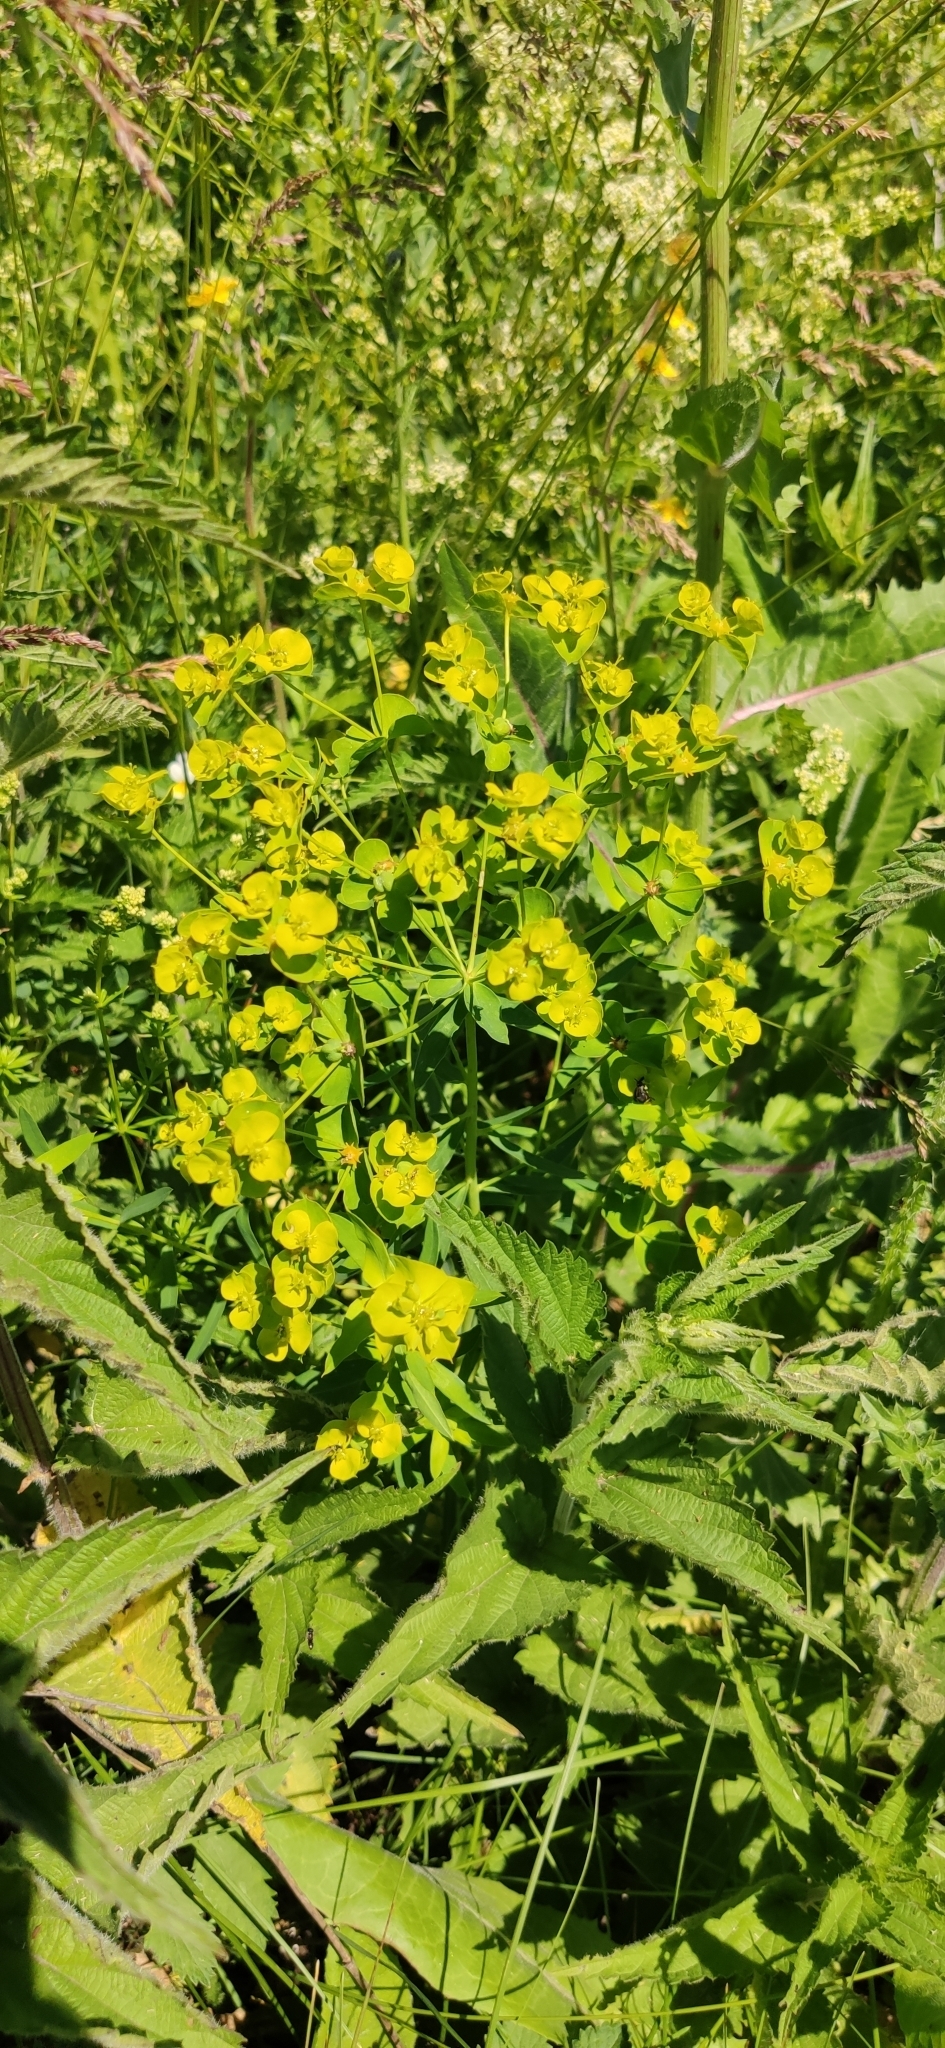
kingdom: Plantae
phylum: Tracheophyta
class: Magnoliopsida
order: Malpighiales
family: Euphorbiaceae
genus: Euphorbia
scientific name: Euphorbia virgata
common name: Leafy spurge
